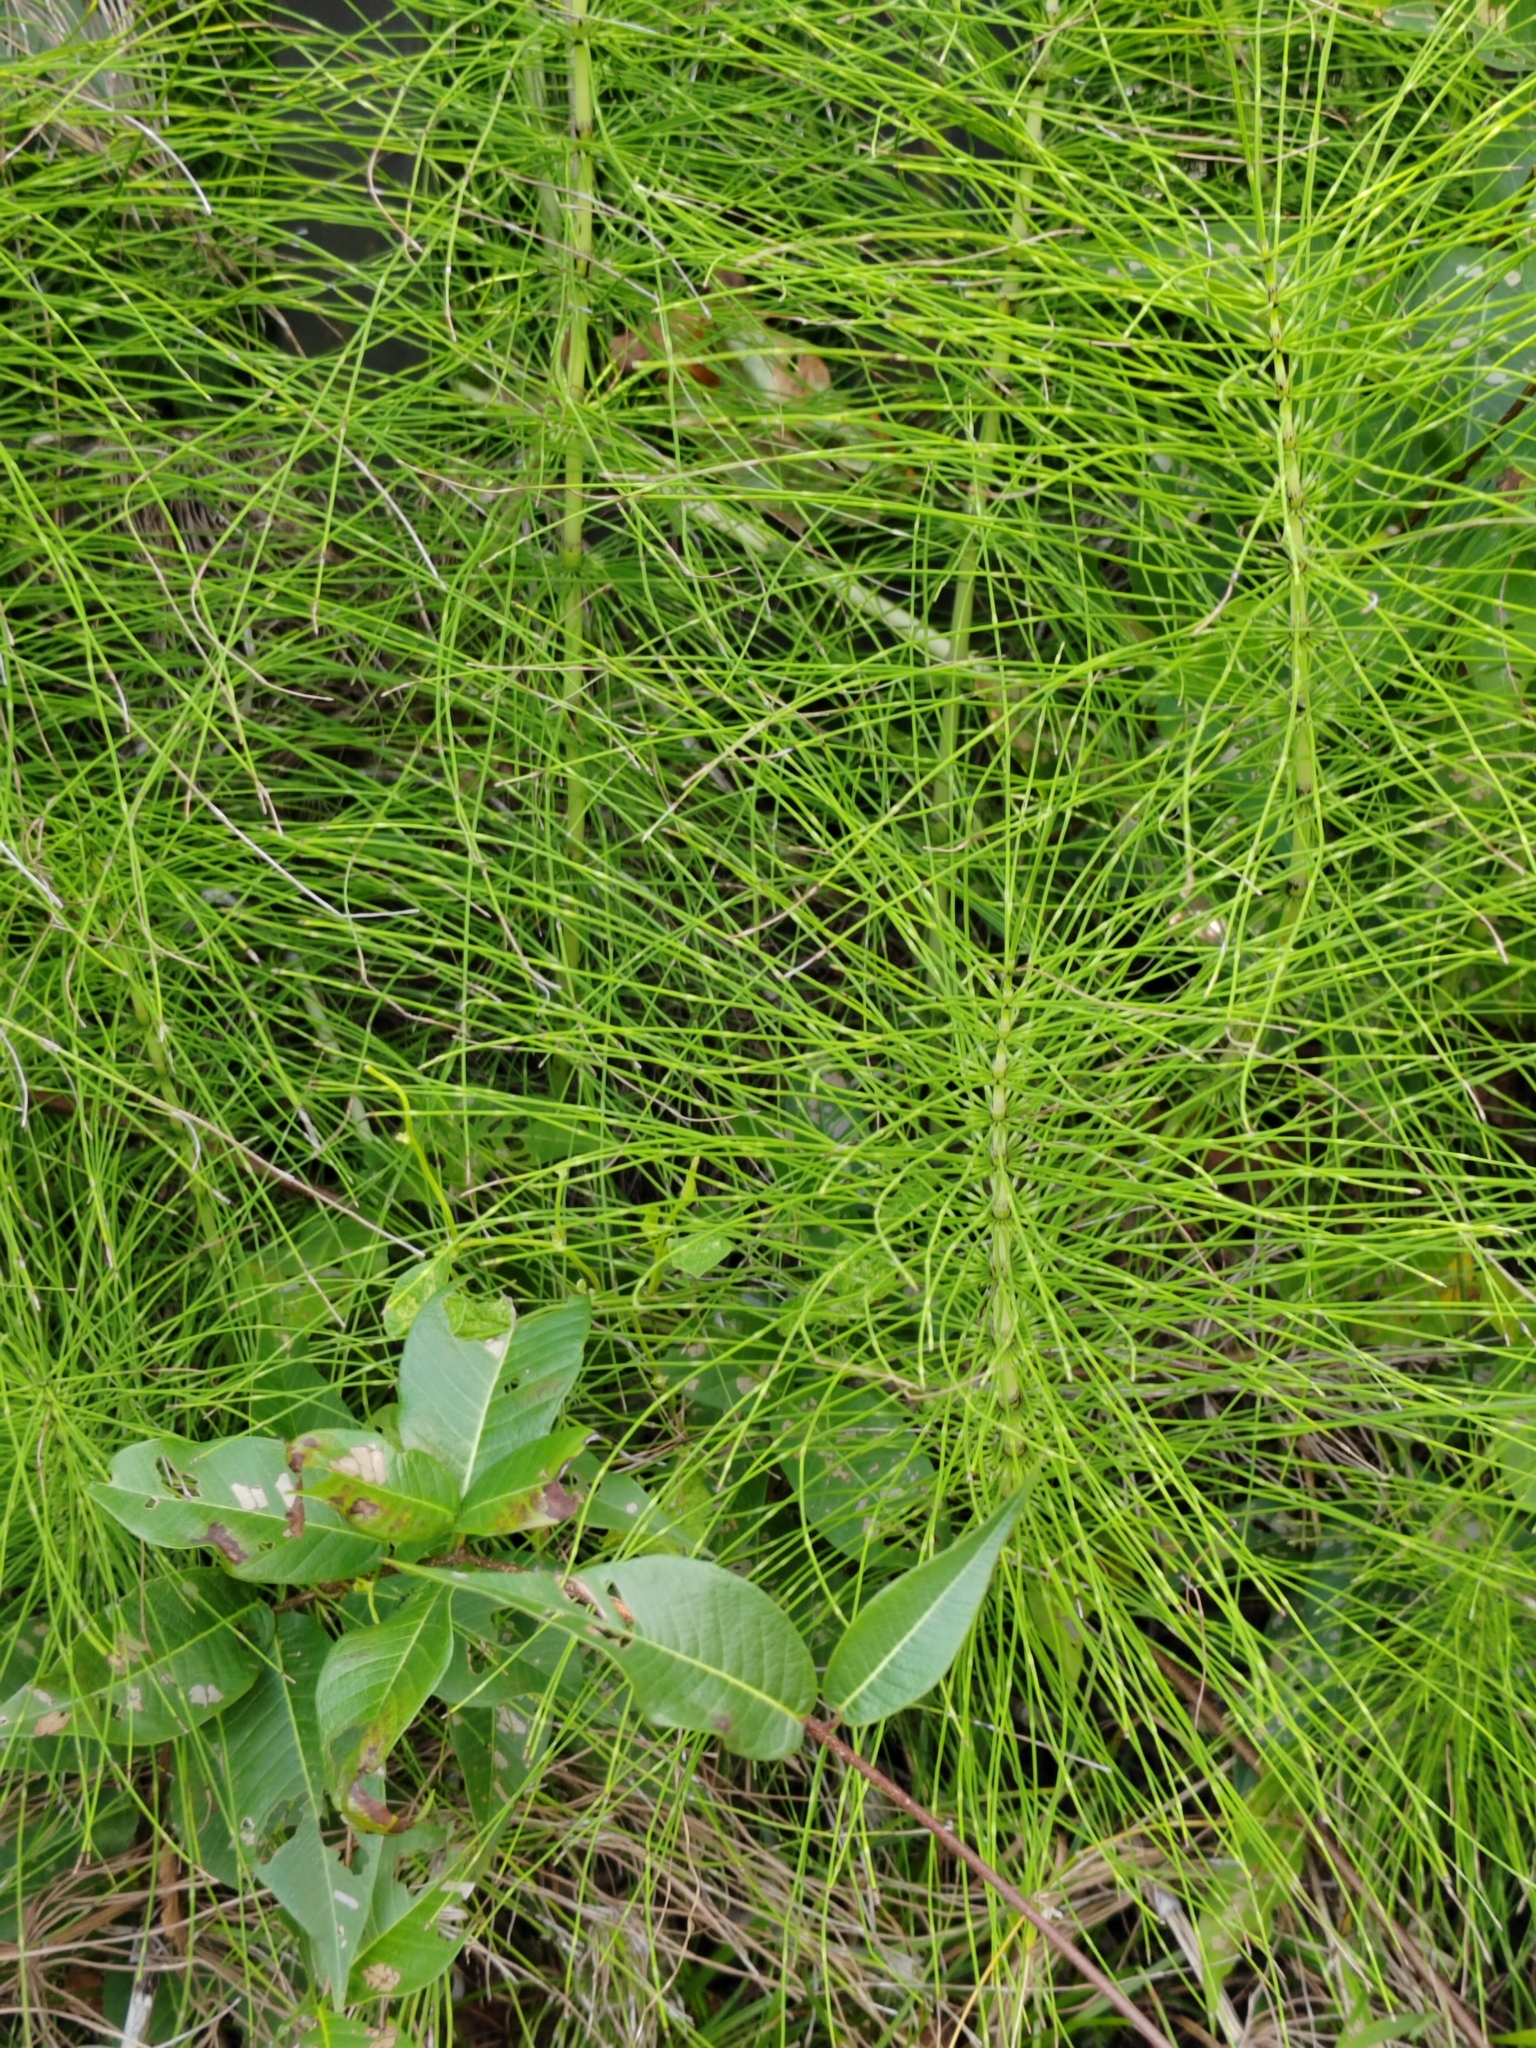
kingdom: Plantae
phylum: Tracheophyta
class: Polypodiopsida
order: Equisetales
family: Equisetaceae
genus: Equisetum
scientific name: Equisetum telmateia
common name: Great horsetail
